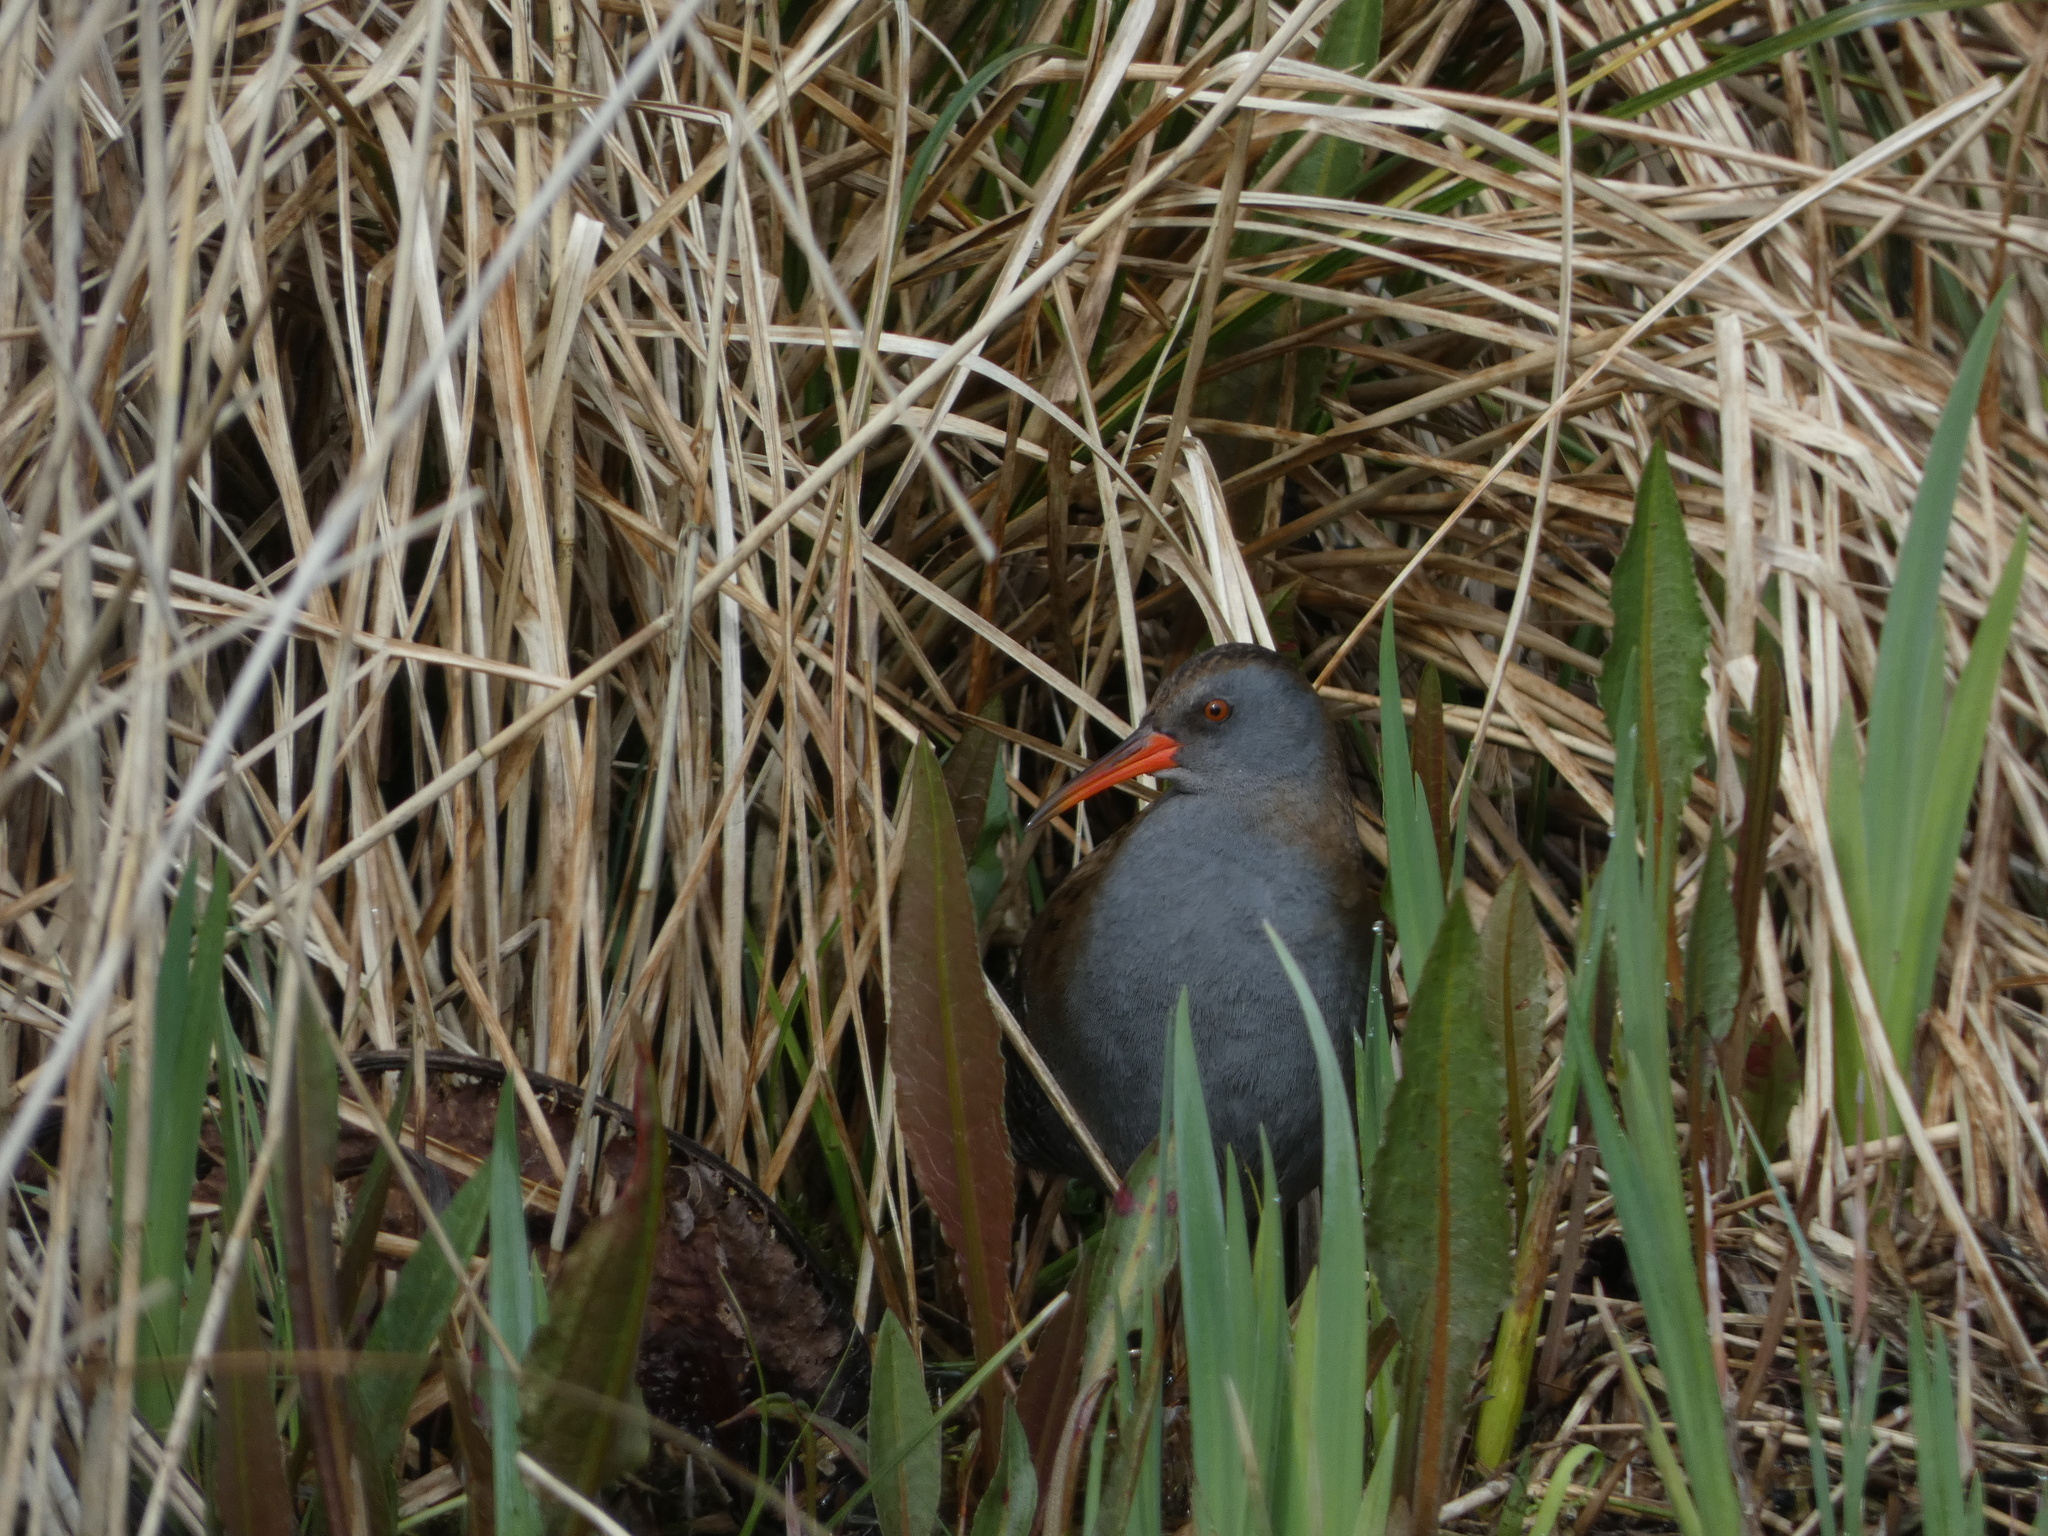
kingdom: Animalia
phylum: Chordata
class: Aves
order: Gruiformes
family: Rallidae
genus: Rallus
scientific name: Rallus aquaticus
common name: Water rail
